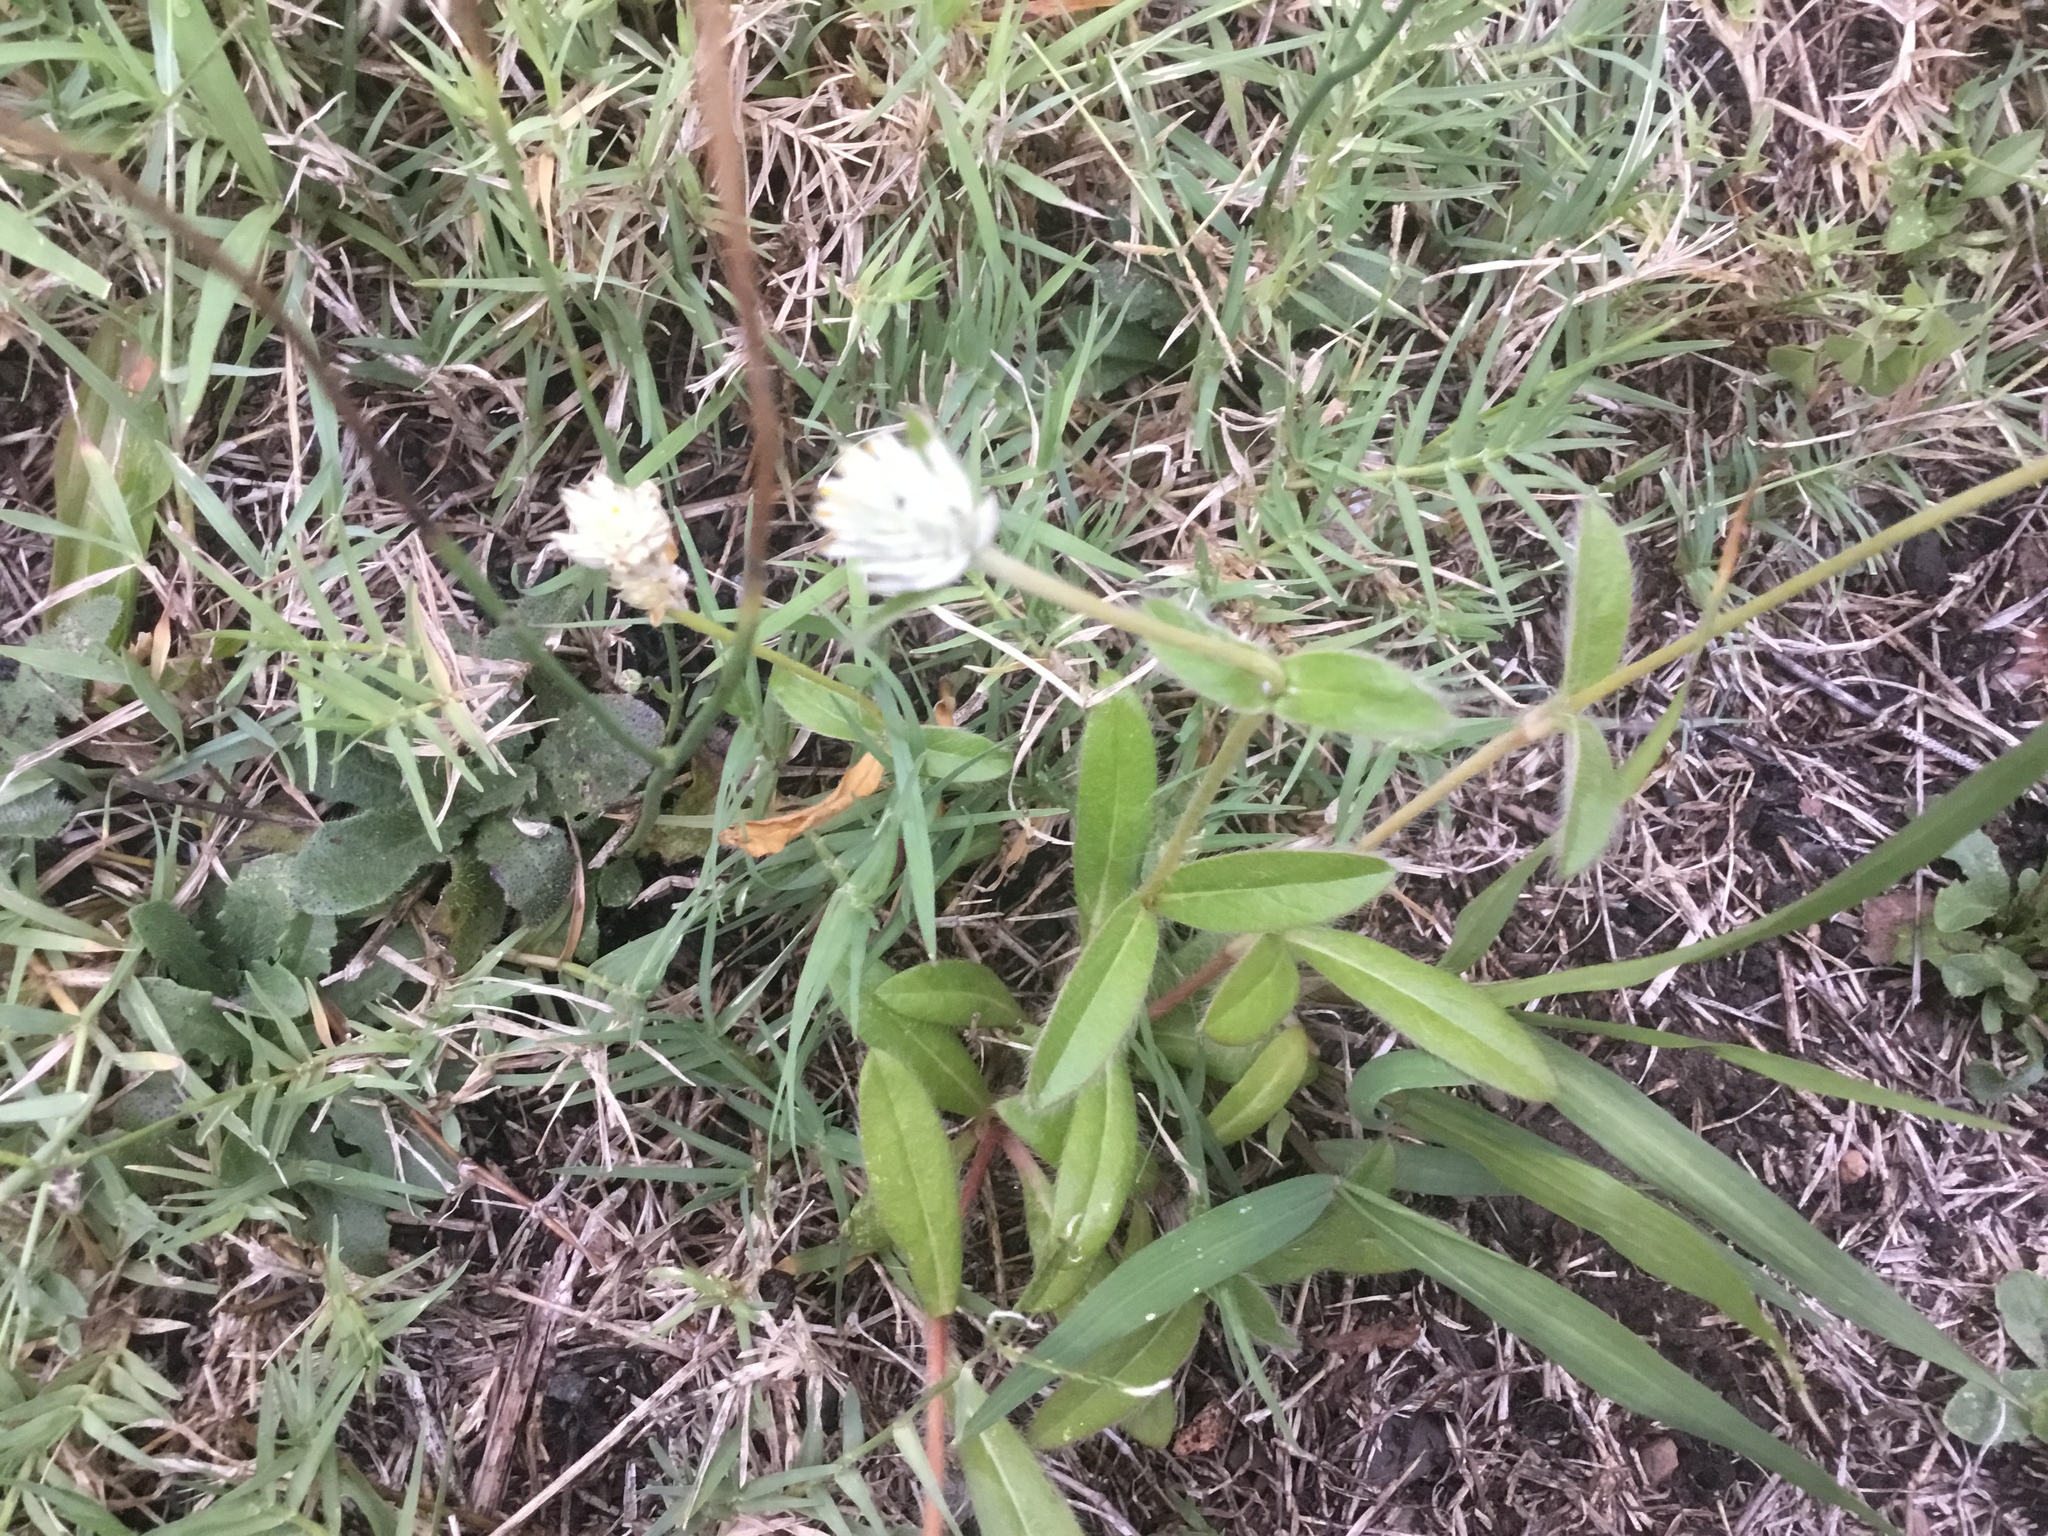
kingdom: Plantae
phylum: Tracheophyta
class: Magnoliopsida
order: Caryophyllales
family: Amaranthaceae
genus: Gomphrena
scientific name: Gomphrena celosioides
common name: Gomphrena-weed
